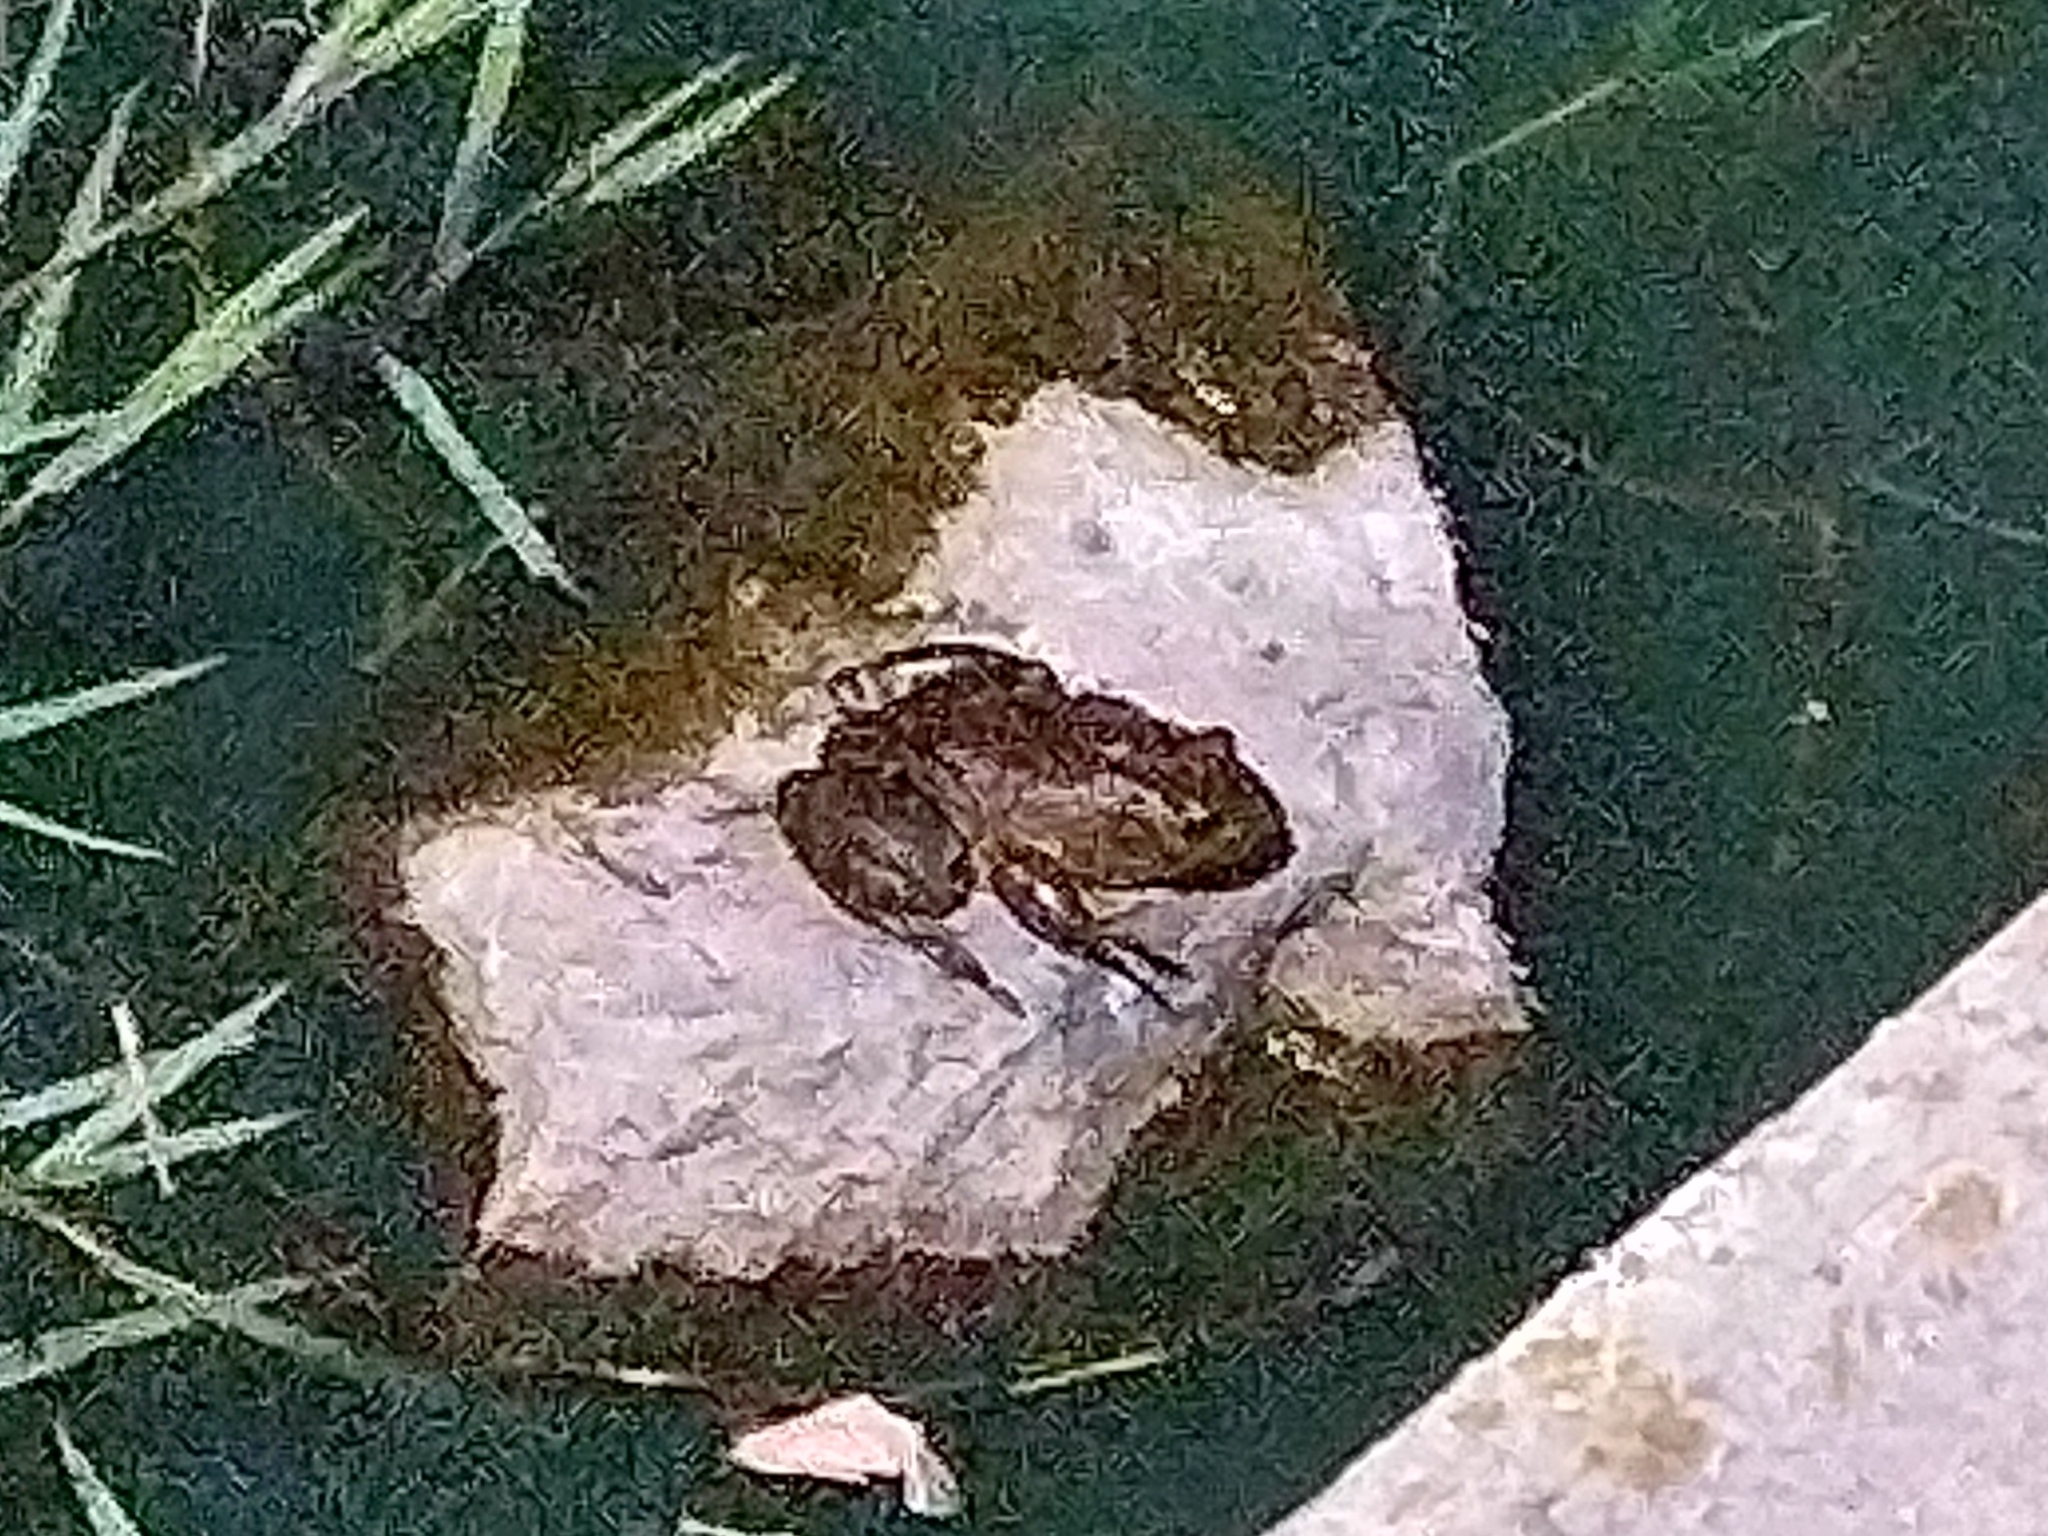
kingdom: Animalia
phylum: Chordata
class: Amphibia
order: Anura
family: Ranidae
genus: Lithobates
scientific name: Lithobates catesbeianus
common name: American bullfrog
